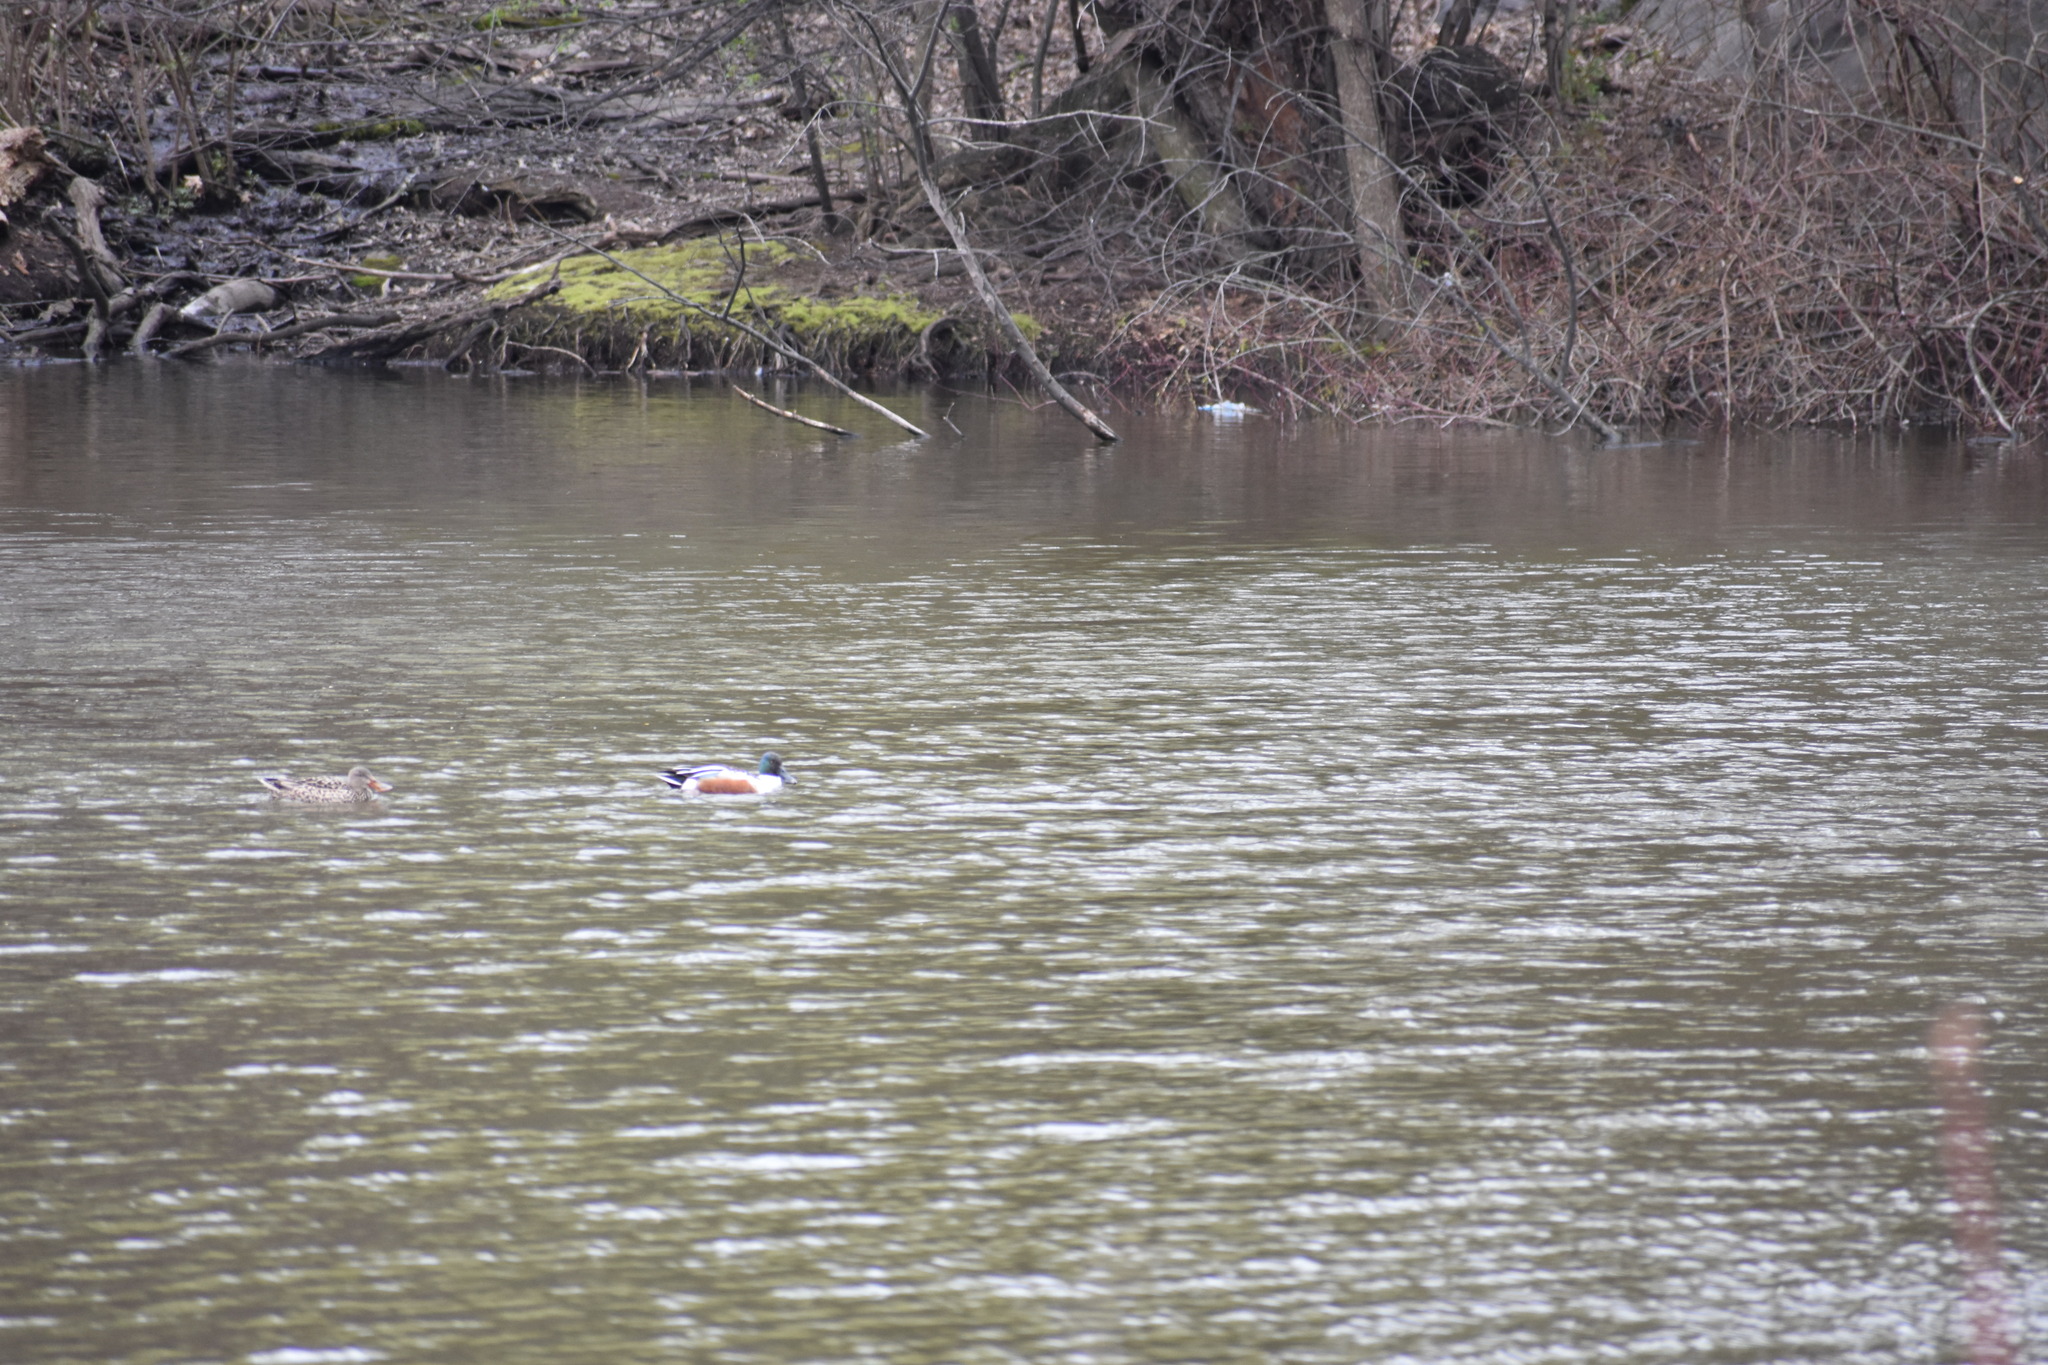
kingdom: Animalia
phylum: Chordata
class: Aves
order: Anseriformes
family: Anatidae
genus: Spatula
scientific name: Spatula clypeata
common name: Northern shoveler
